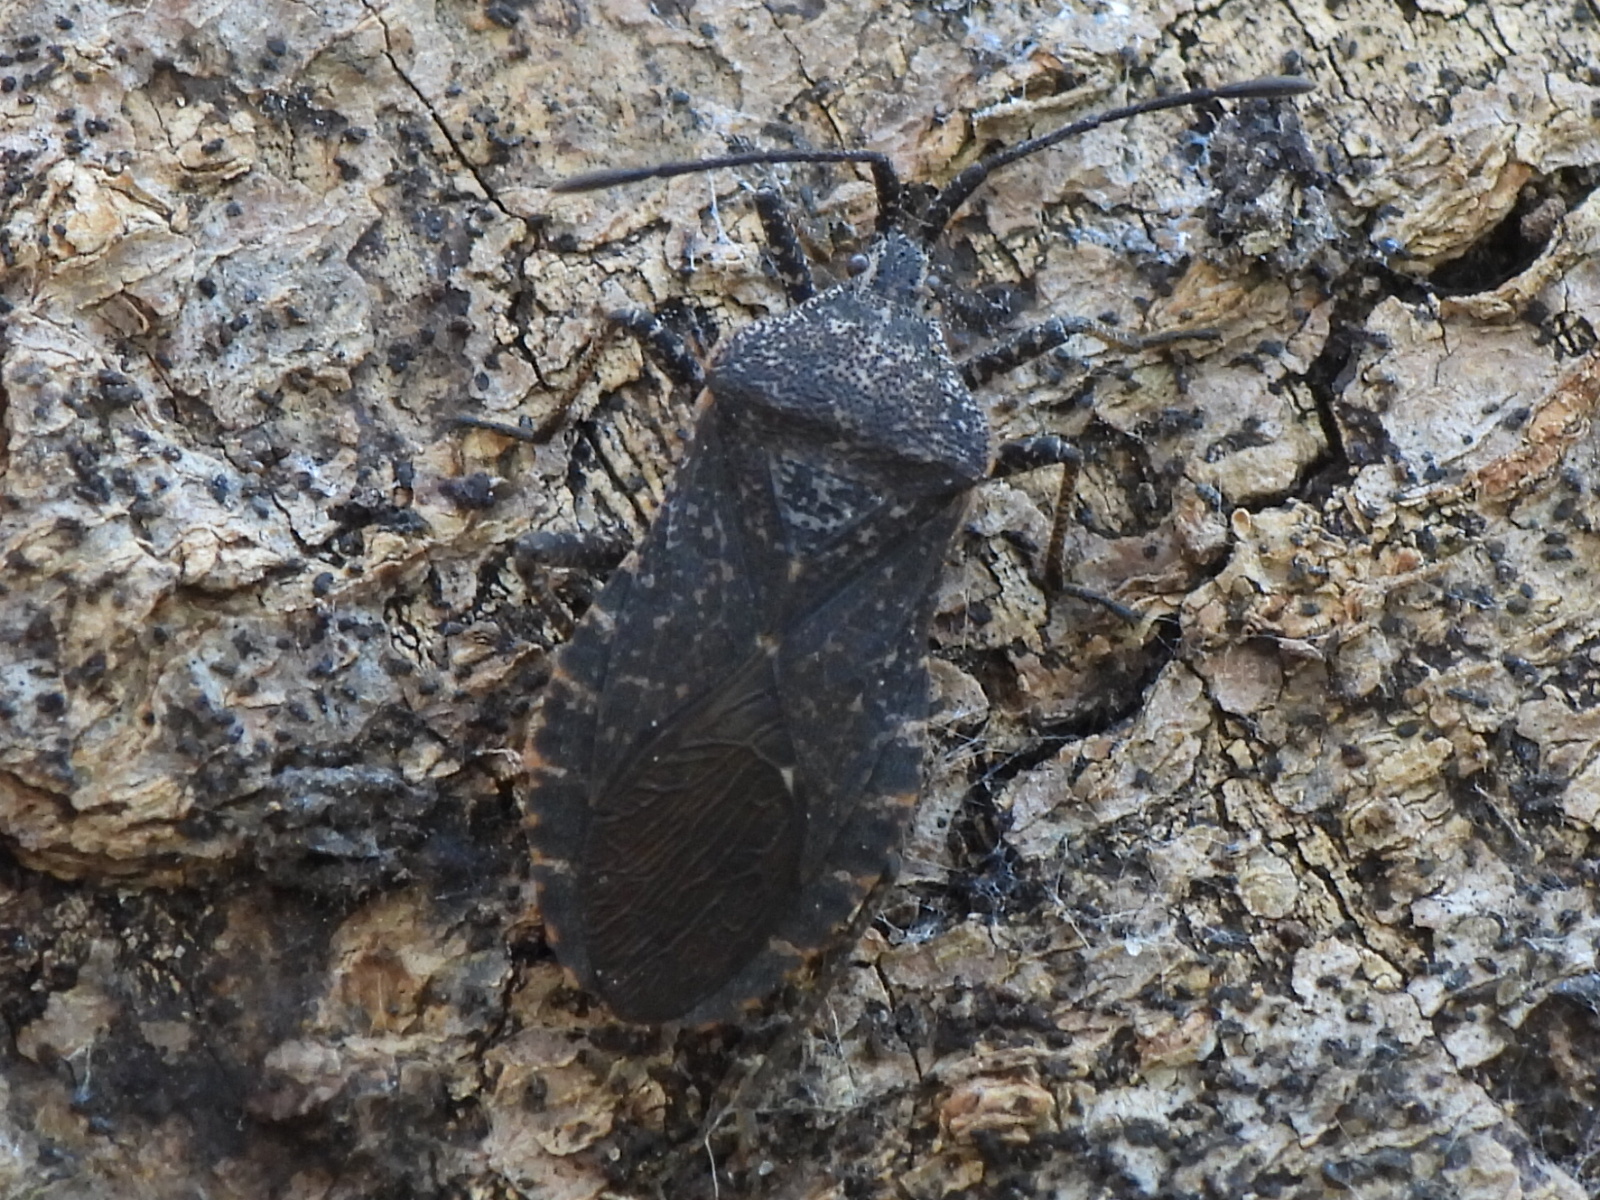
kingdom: Animalia
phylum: Arthropoda
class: Insecta
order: Hemiptera
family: Coreidae
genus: Cimolus
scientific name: Cimolus obscurus
